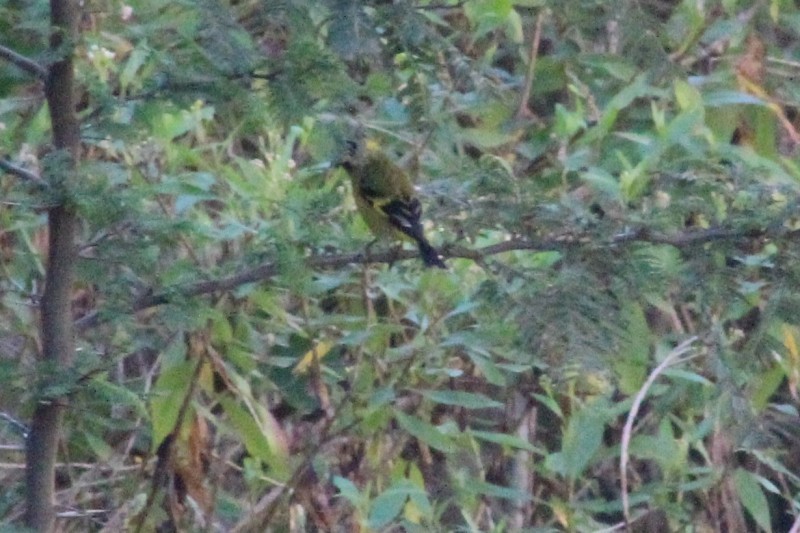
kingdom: Animalia
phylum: Chordata
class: Aves
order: Passeriformes
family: Fringillidae
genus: Spinus
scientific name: Spinus magellanicus
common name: Hooded siskin
